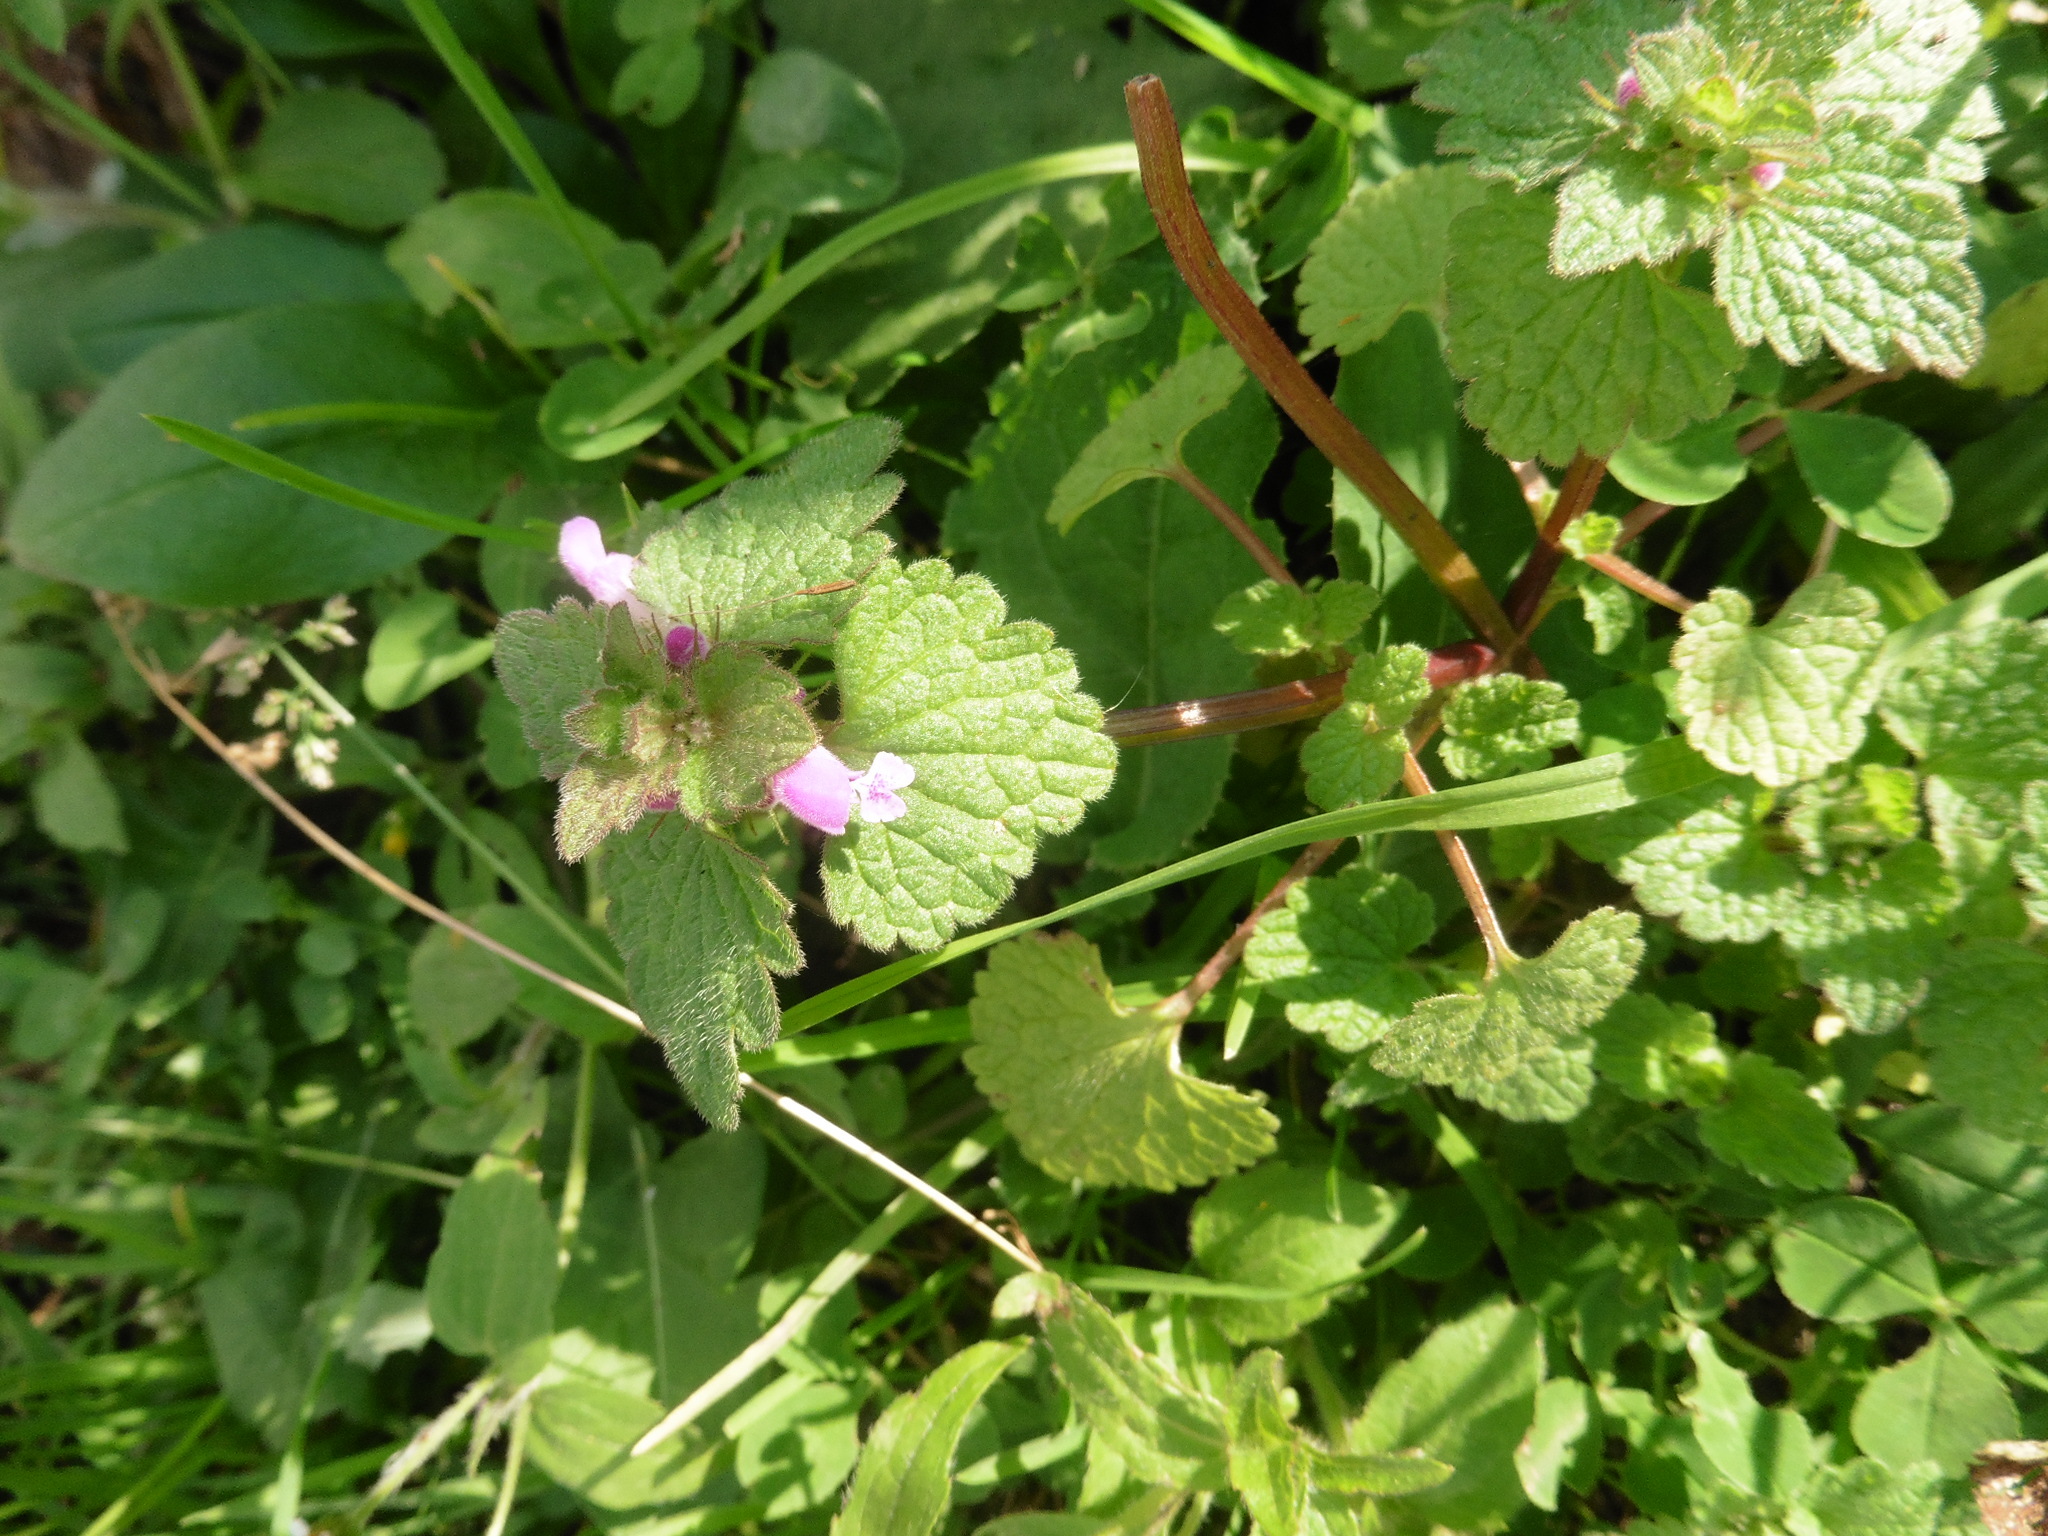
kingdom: Plantae
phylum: Tracheophyta
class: Magnoliopsida
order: Lamiales
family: Lamiaceae
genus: Lamium
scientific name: Lamium purpureum
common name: Red dead-nettle
